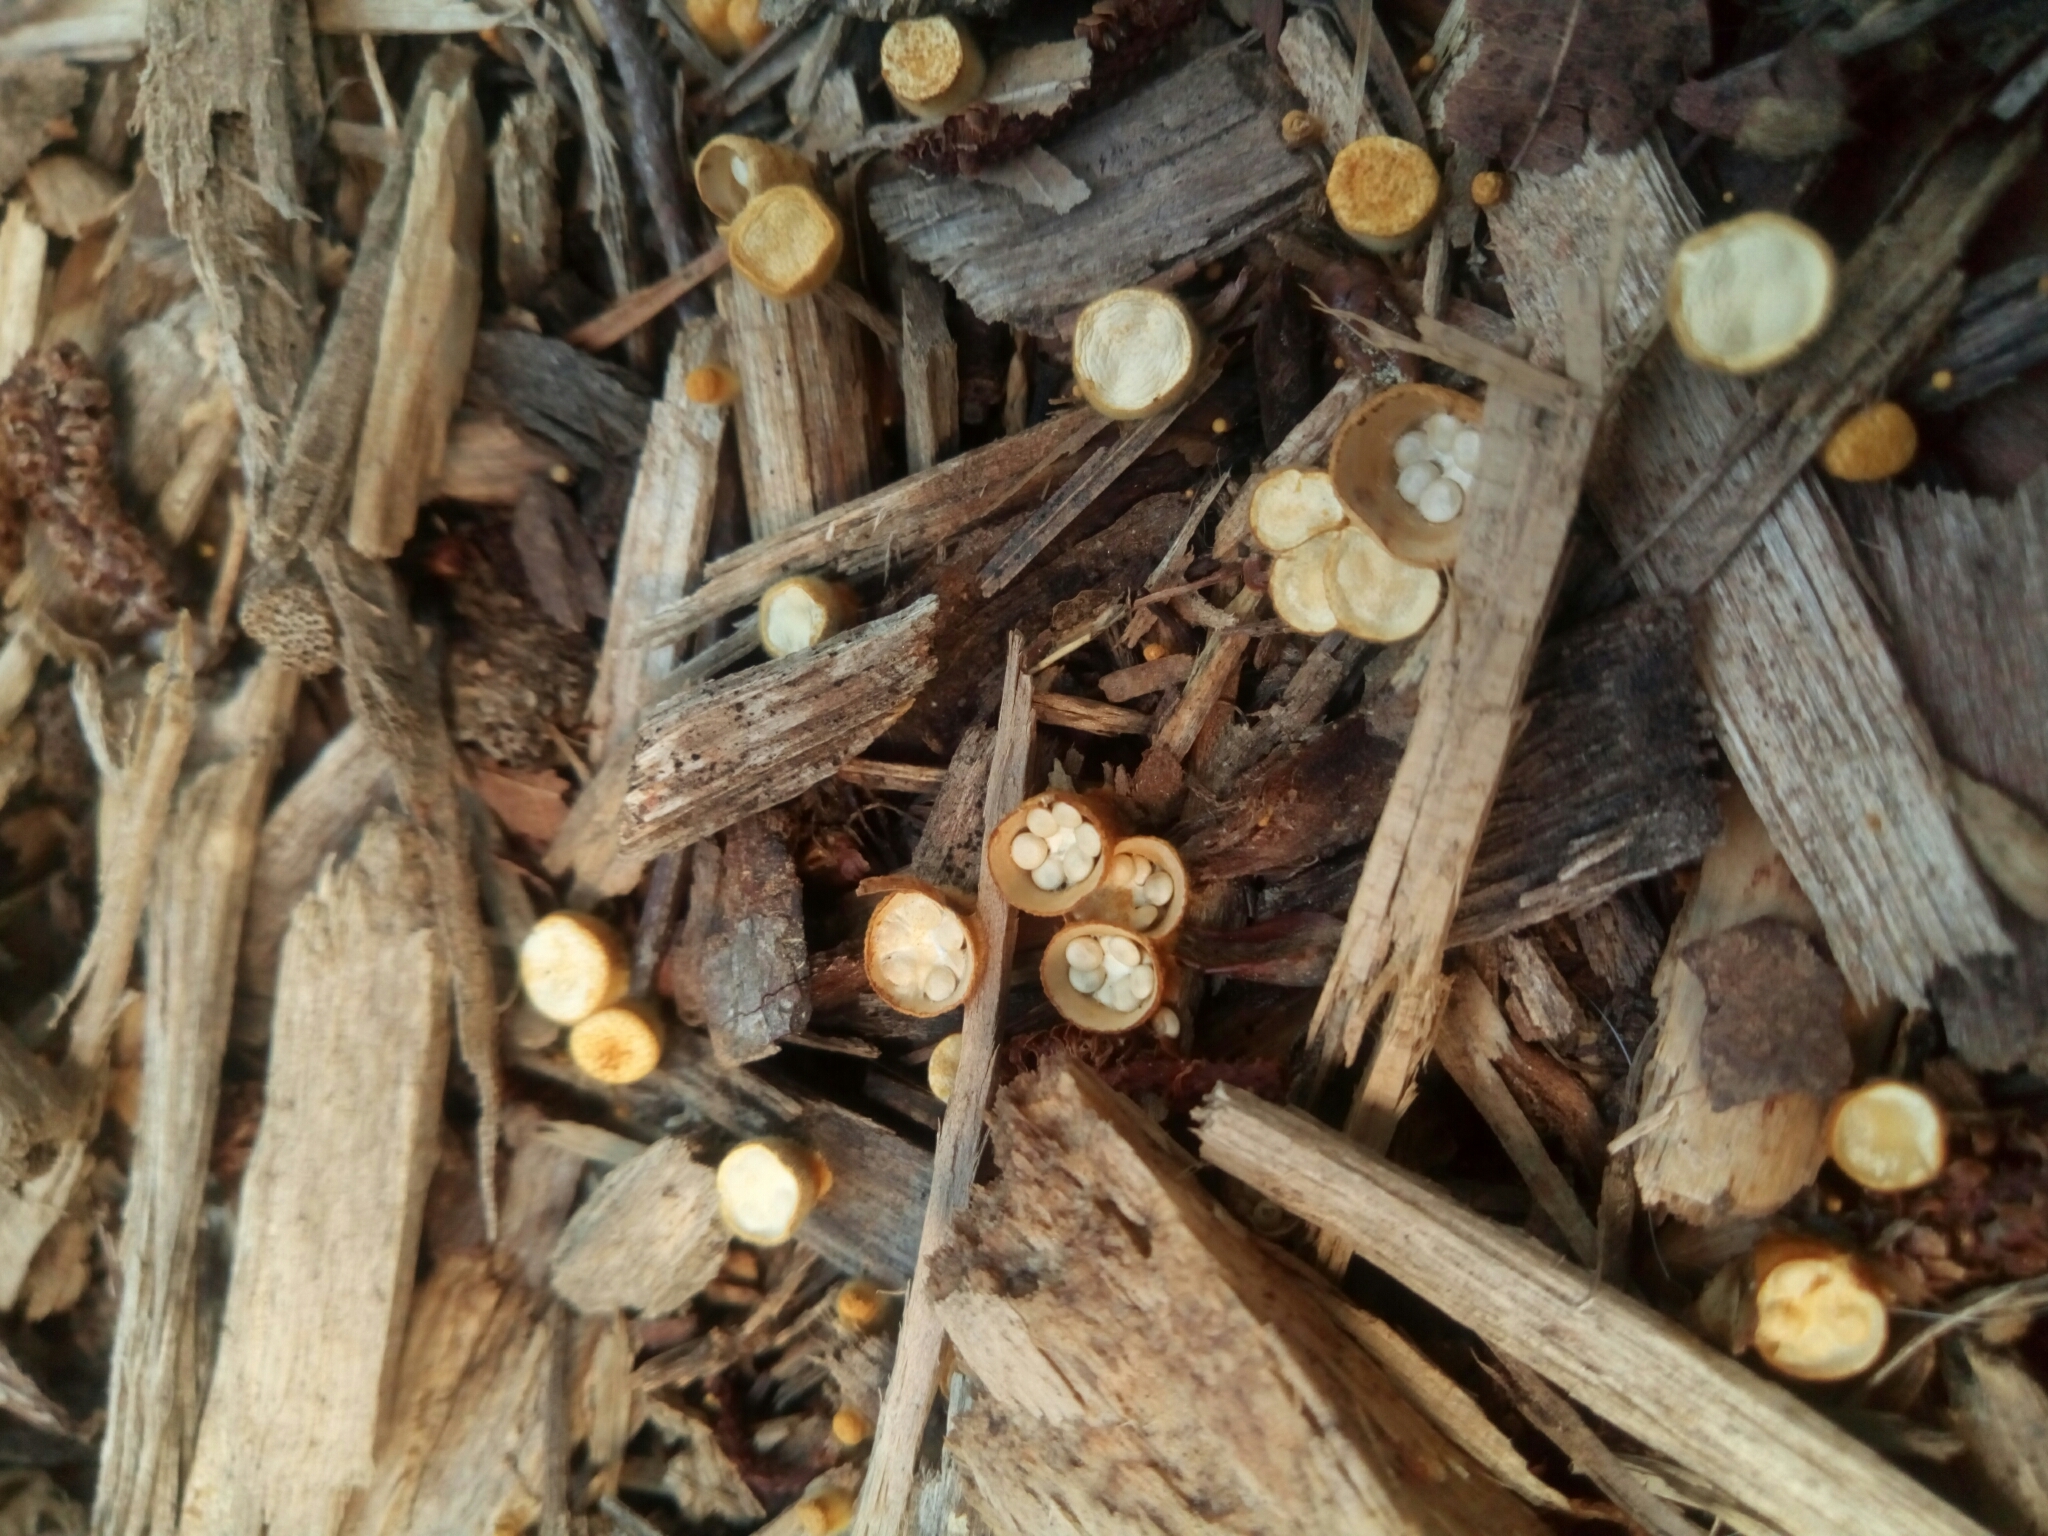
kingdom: Fungi
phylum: Basidiomycota
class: Agaricomycetes
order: Agaricales
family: Nidulariaceae
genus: Crucibulum
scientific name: Crucibulum laeve
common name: Common bird's nest
